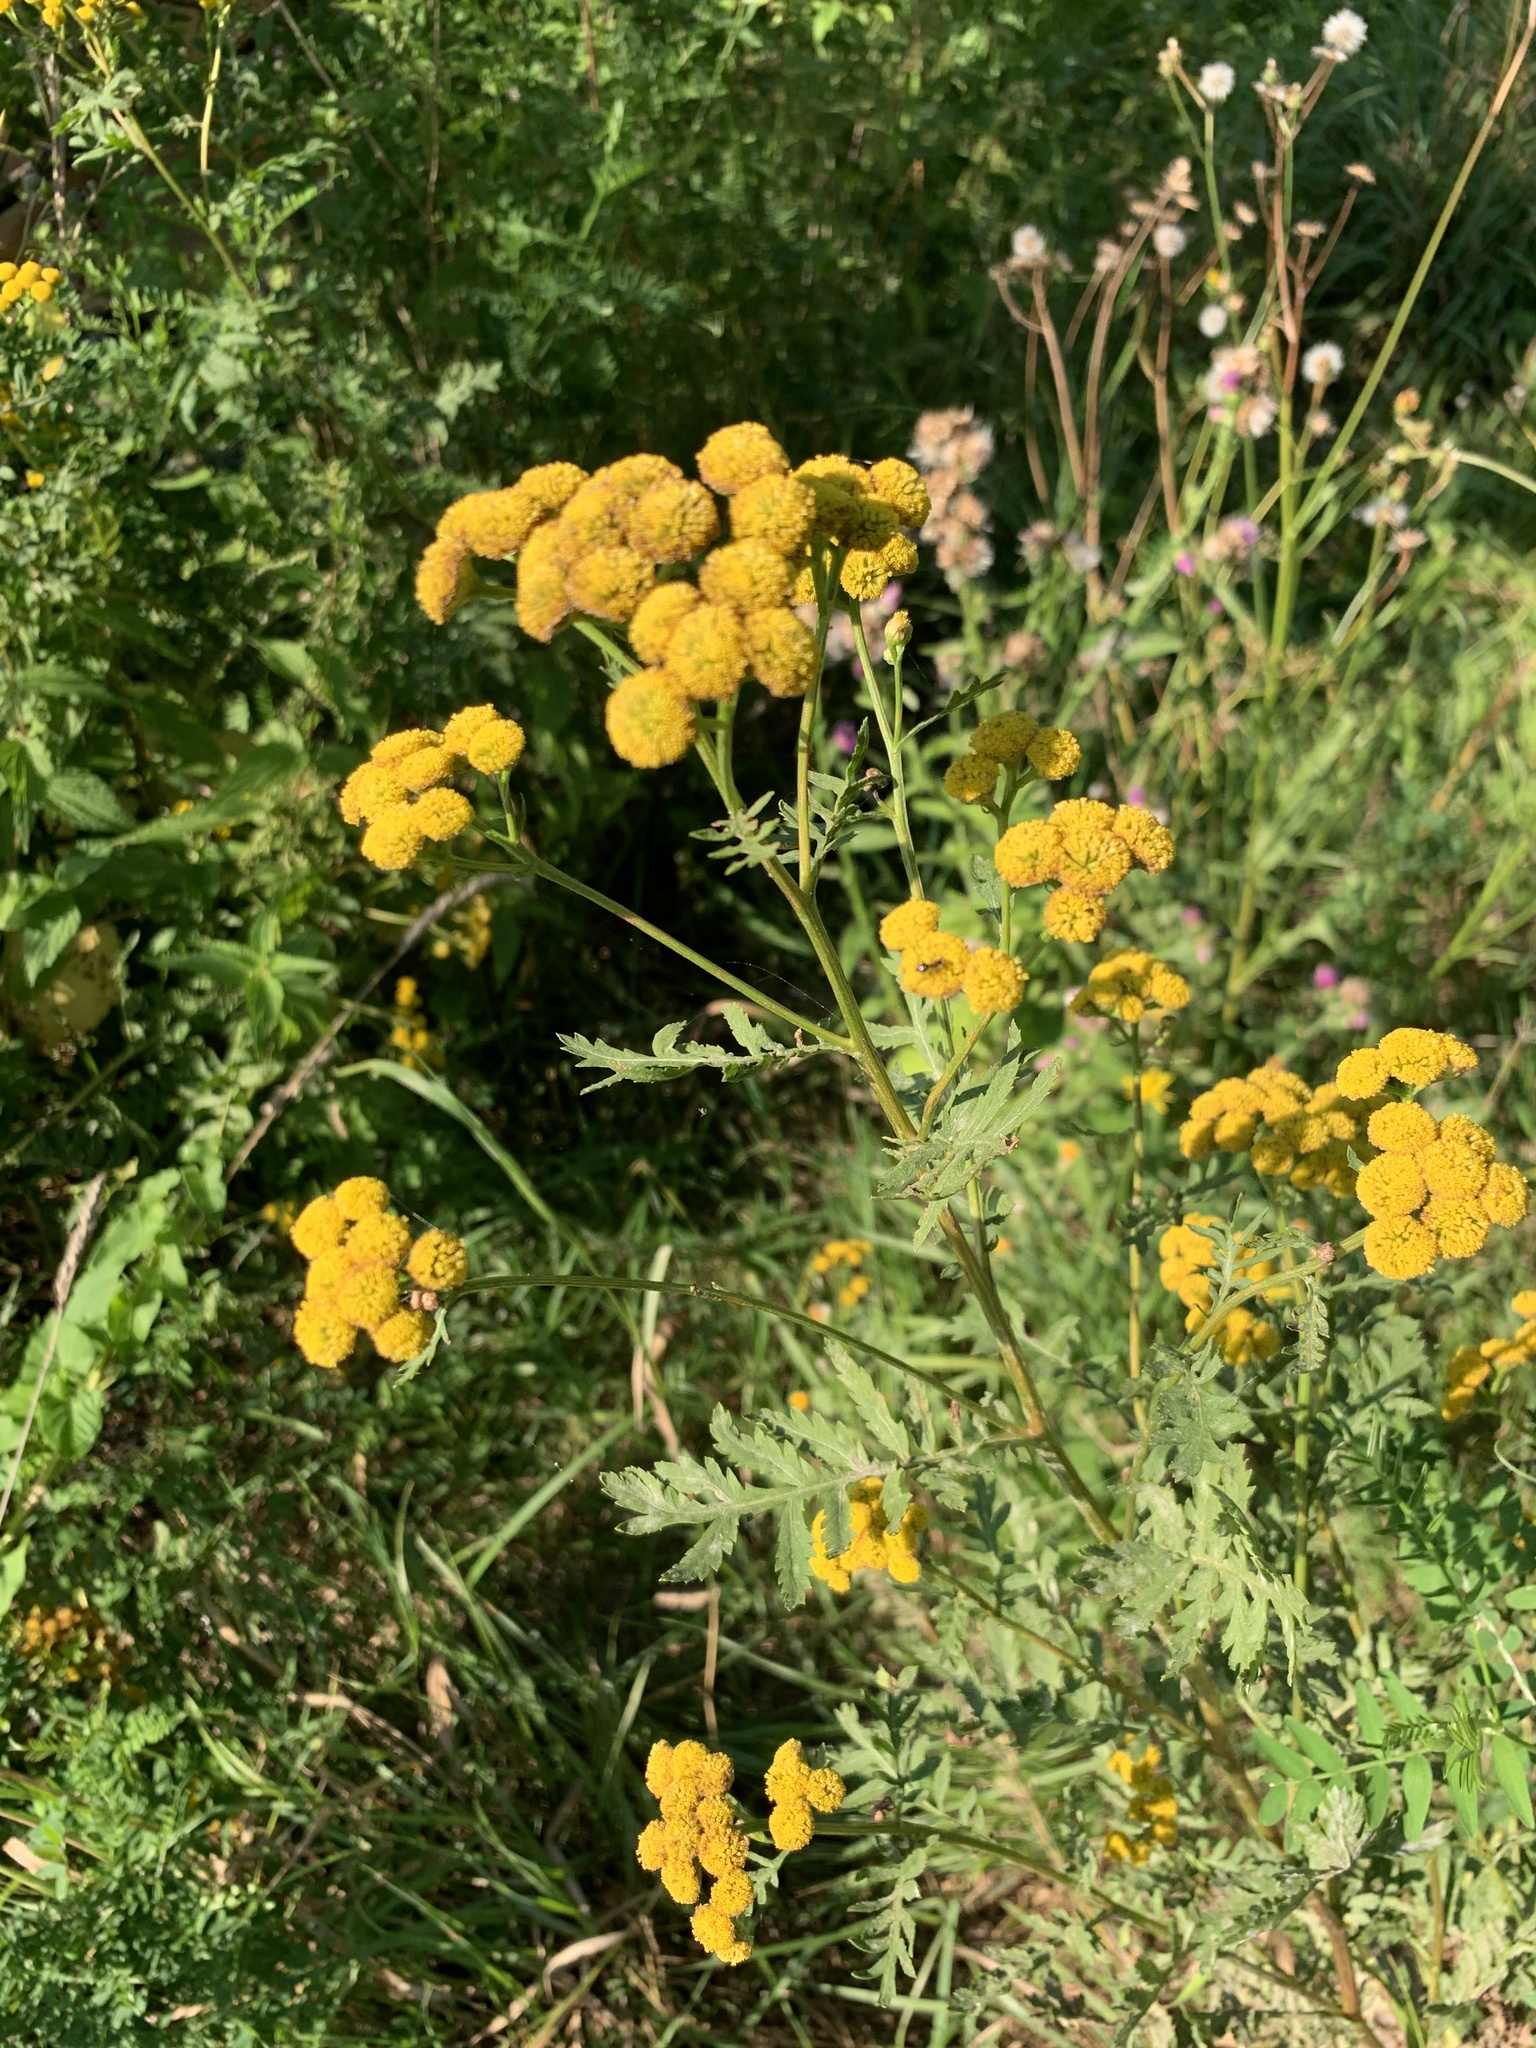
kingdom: Plantae
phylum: Tracheophyta
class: Magnoliopsida
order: Asterales
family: Asteraceae
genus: Tanacetum
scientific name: Tanacetum vulgare
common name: Common tansy
